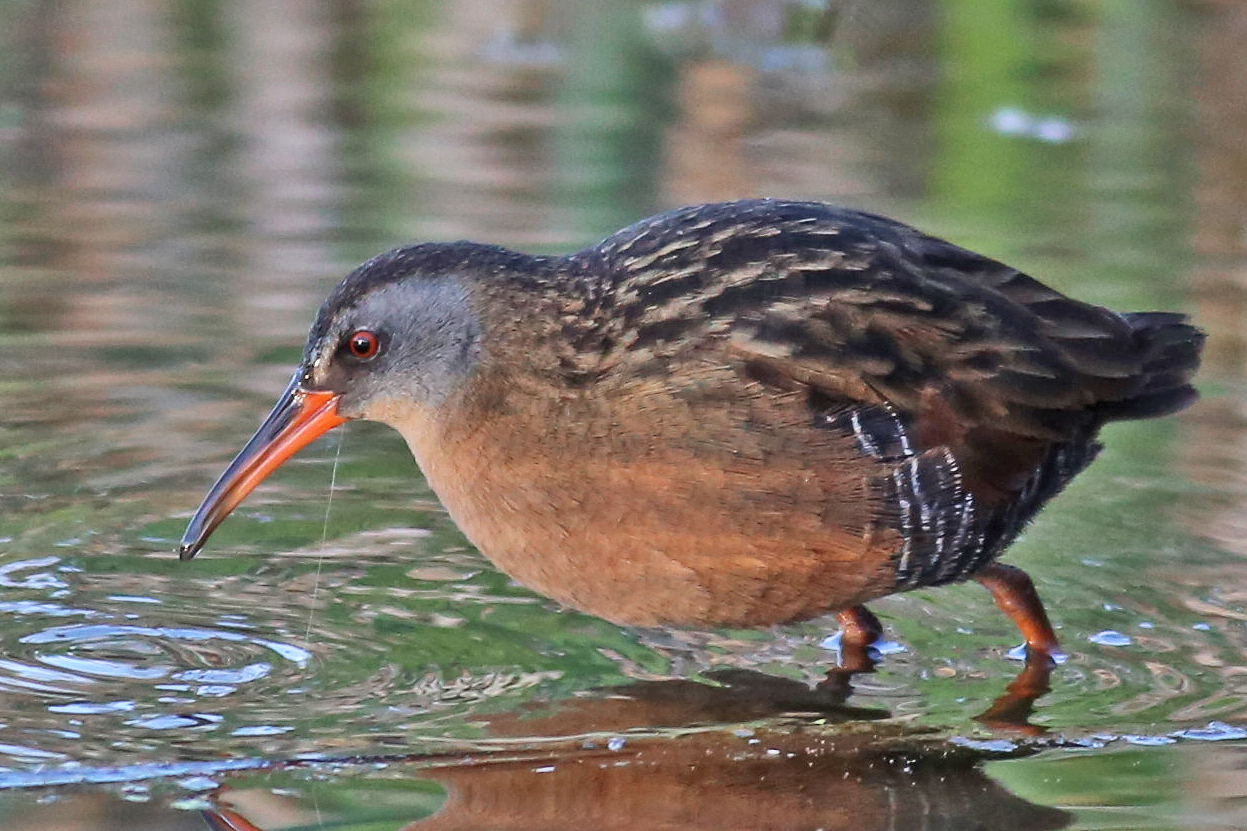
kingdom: Animalia
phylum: Chordata
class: Aves
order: Gruiformes
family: Rallidae
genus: Rallus
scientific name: Rallus limicola
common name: Virginia rail
